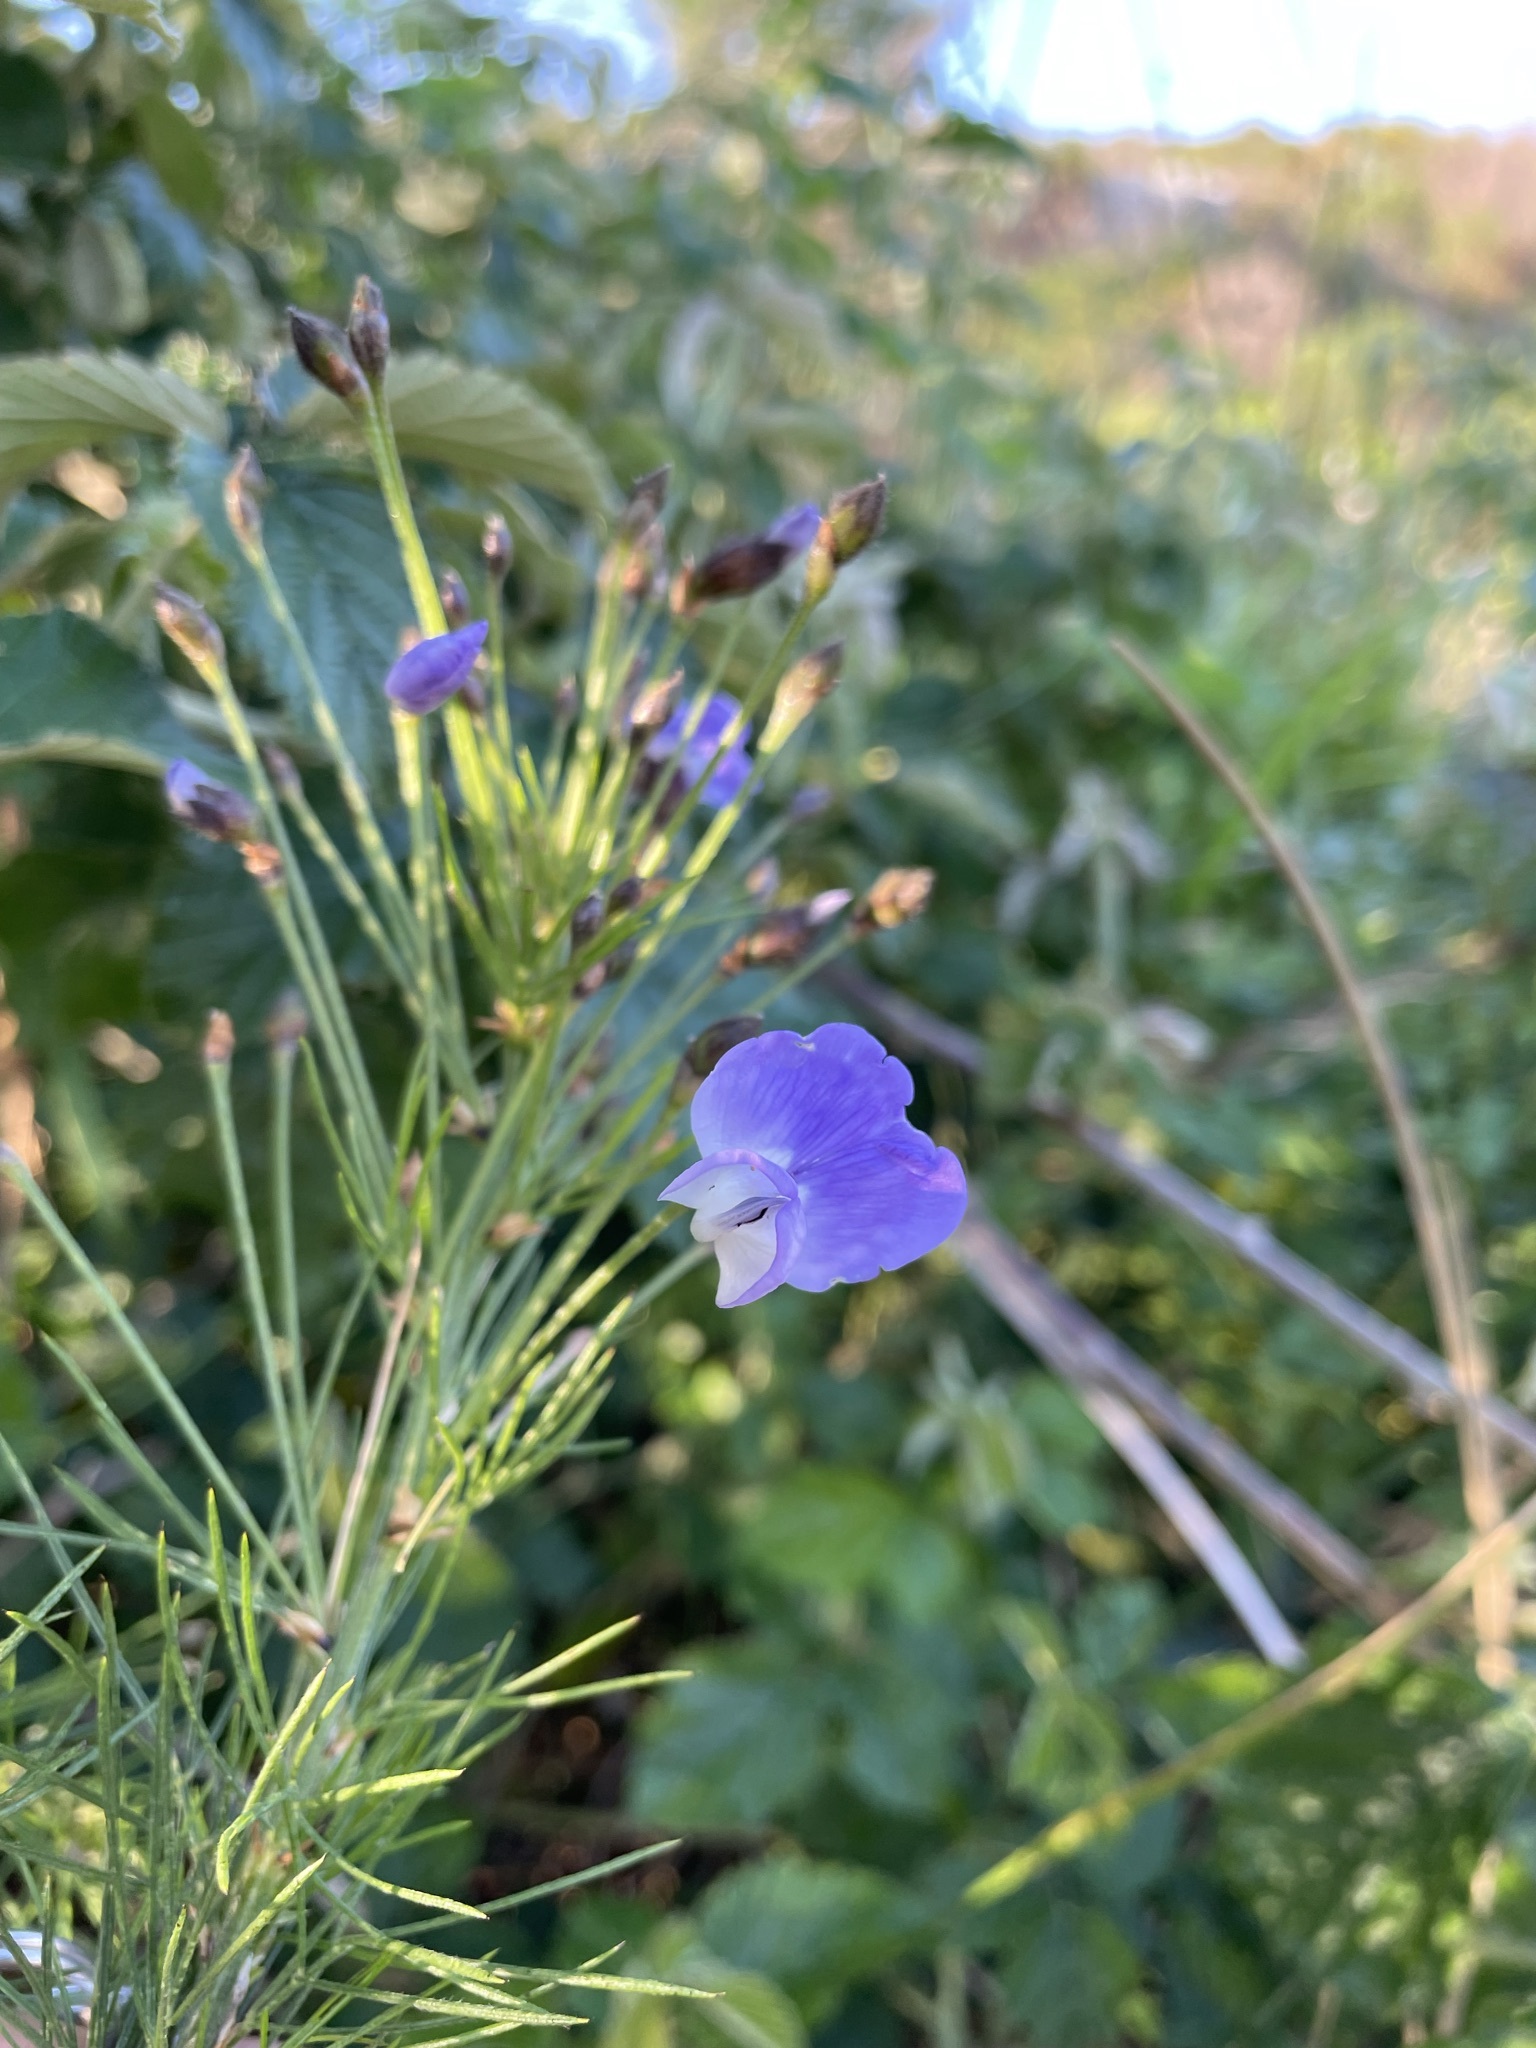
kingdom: Plantae
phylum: Tracheophyta
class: Magnoliopsida
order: Fabales
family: Fabaceae
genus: Psoralea
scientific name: Psoralea arborea
